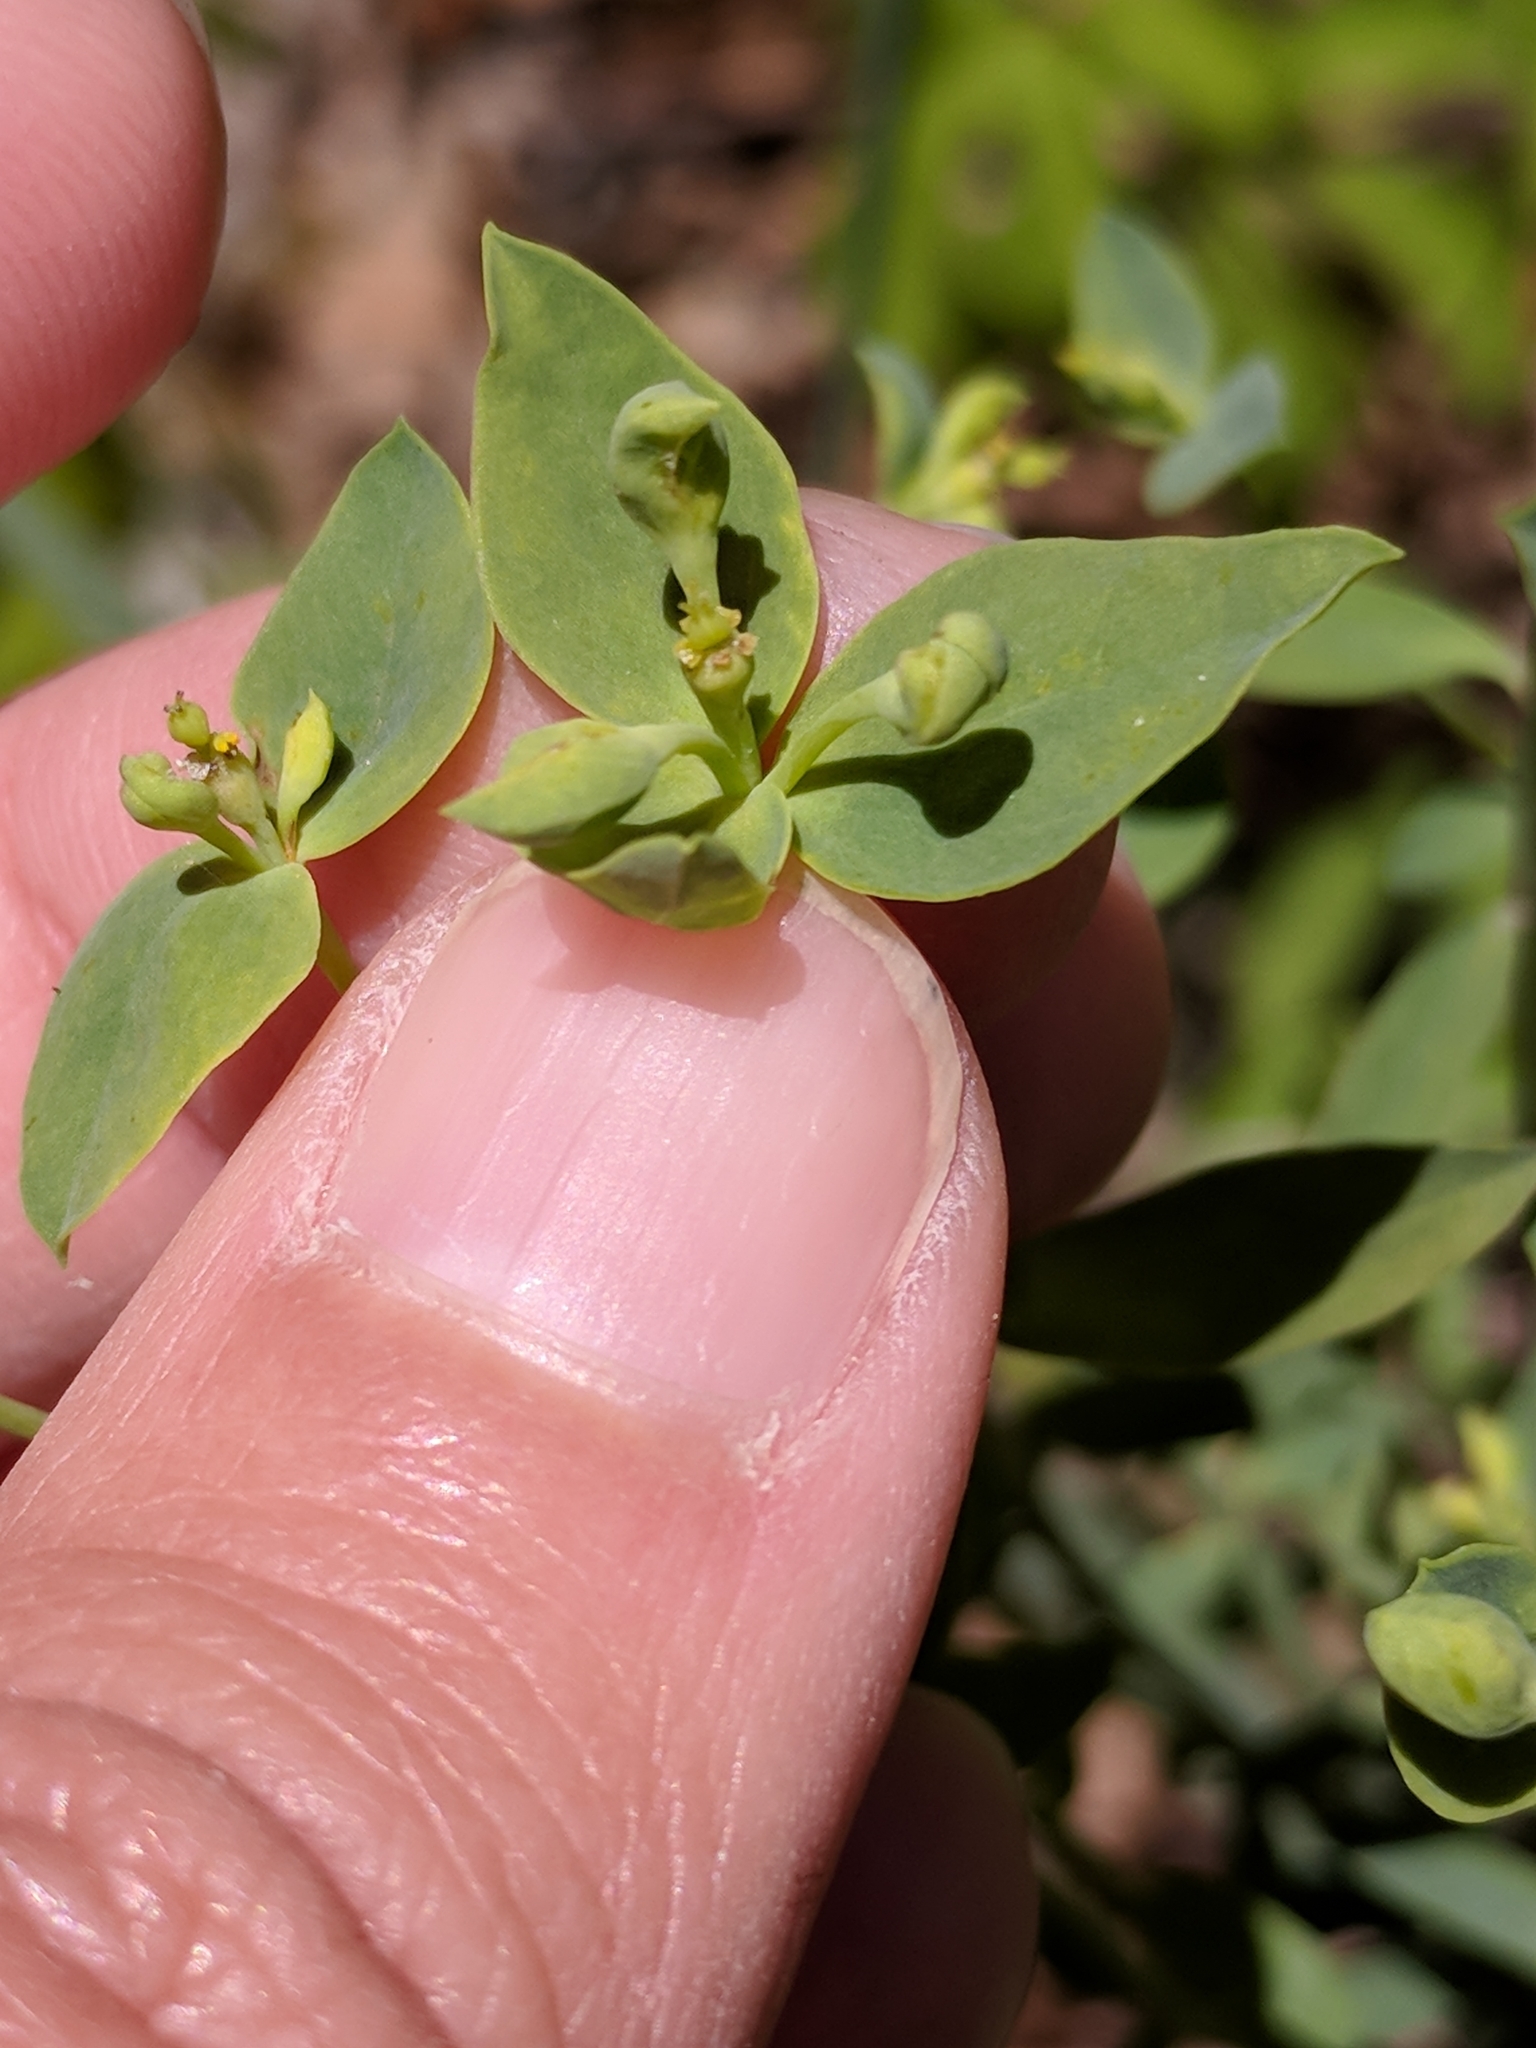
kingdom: Plantae
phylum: Tracheophyta
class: Magnoliopsida
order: Malpighiales
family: Euphorbiaceae
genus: Euphorbia
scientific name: Euphorbia brachycera
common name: Shorthorn spurge
